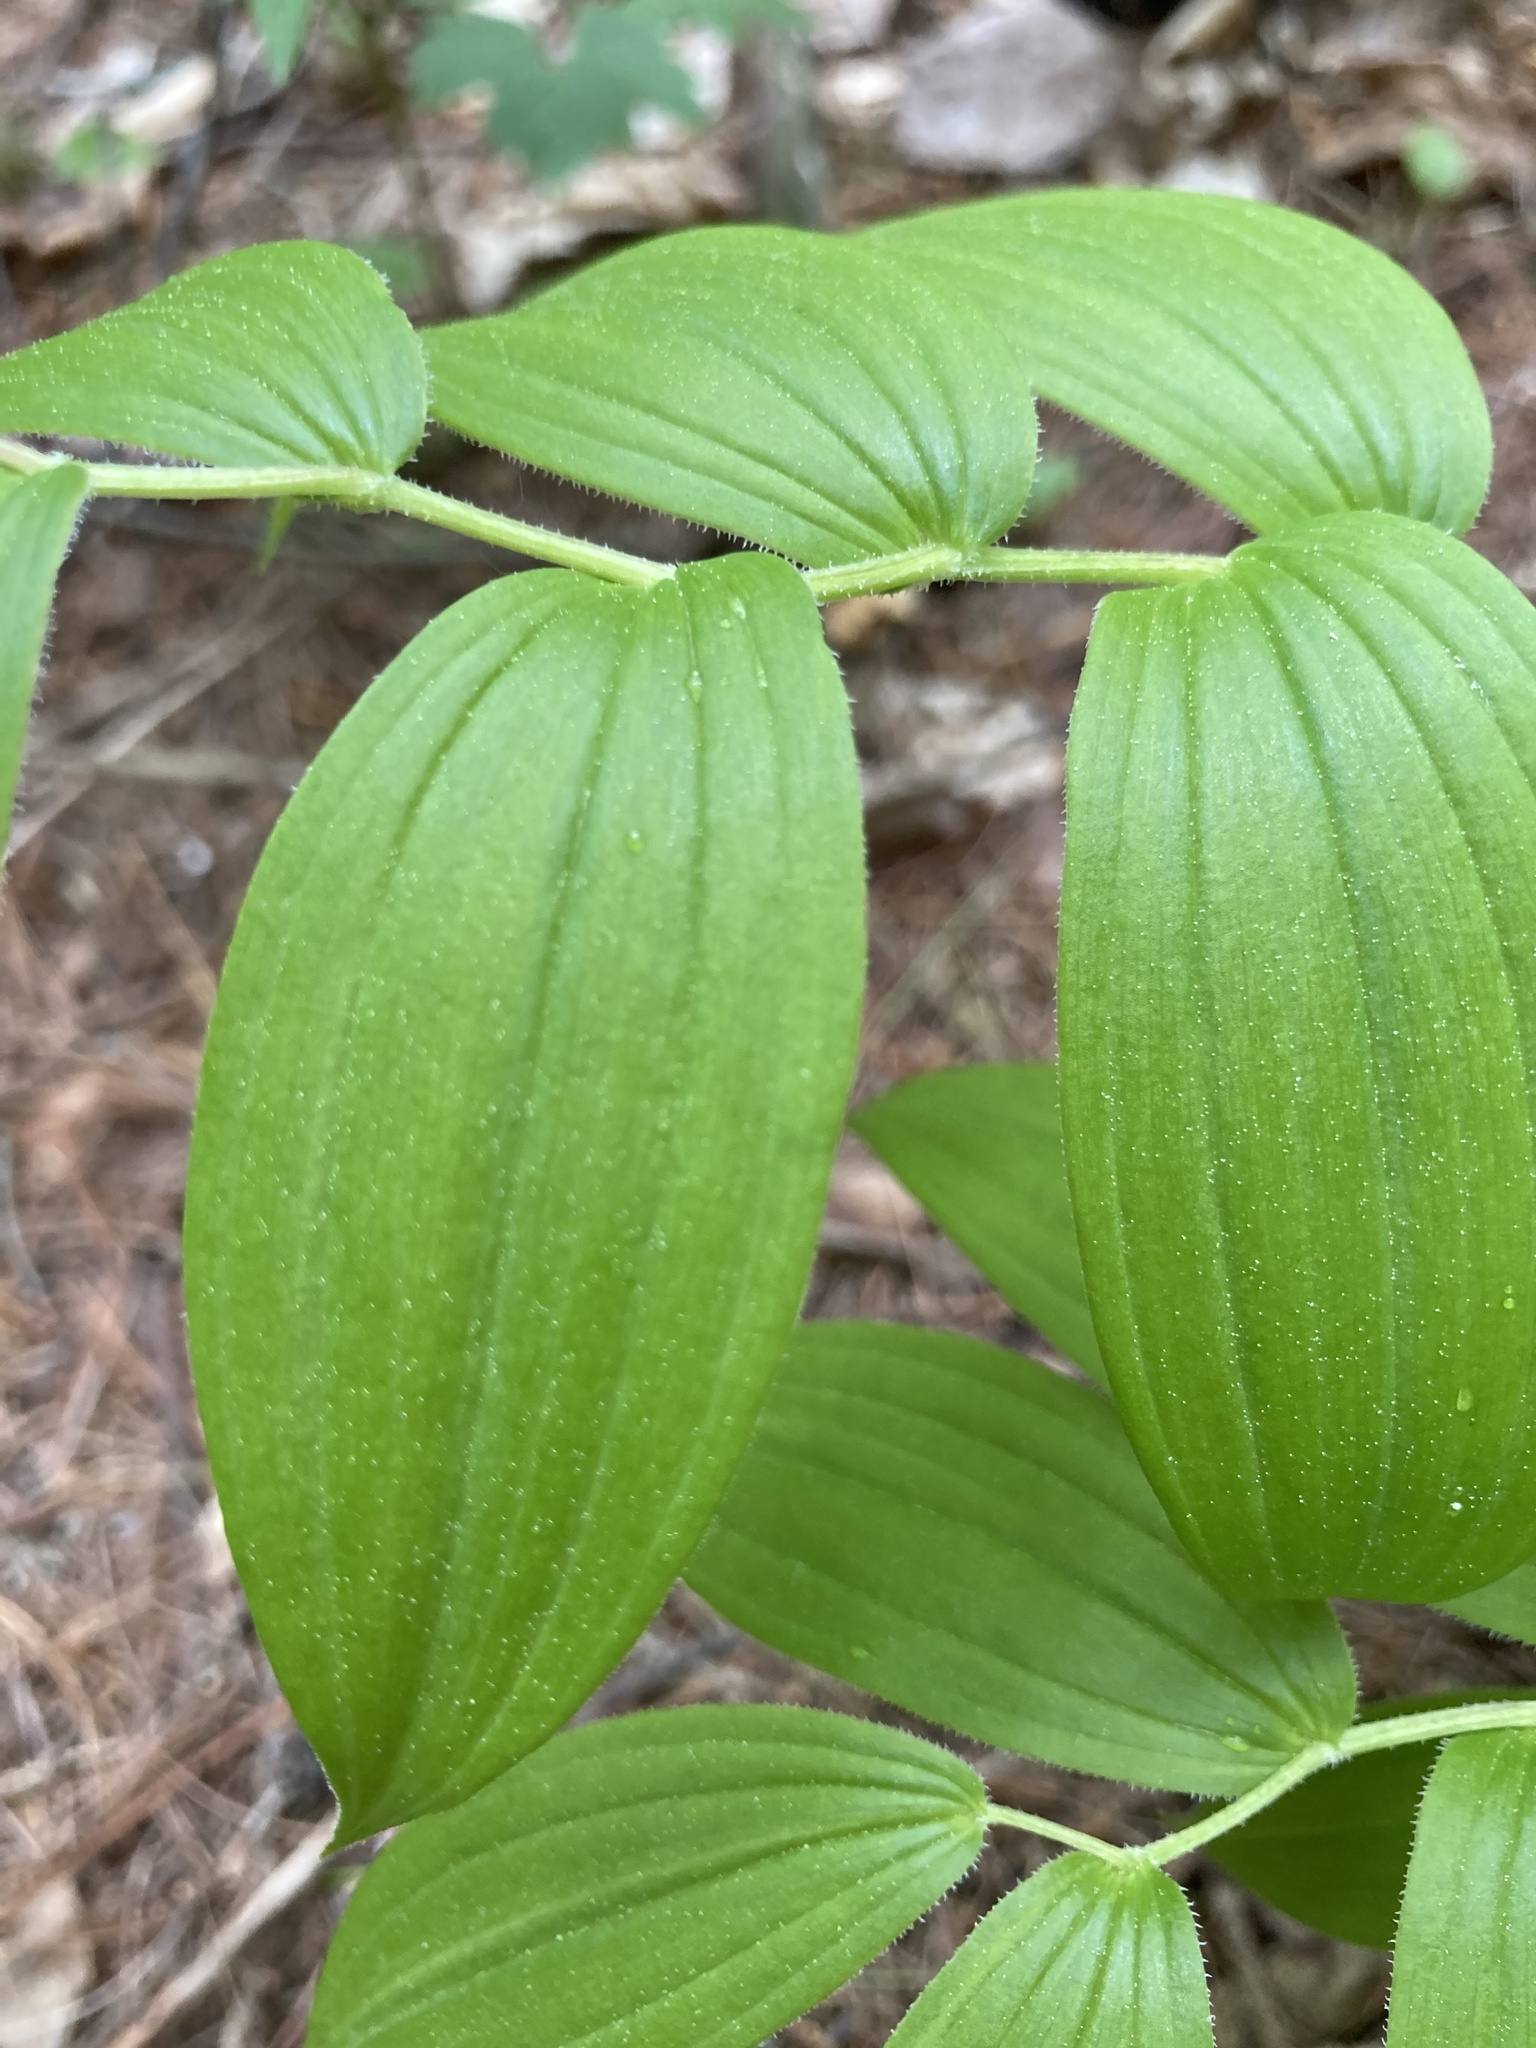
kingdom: Plantae
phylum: Tracheophyta
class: Liliopsida
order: Liliales
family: Liliaceae
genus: Streptopus
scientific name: Streptopus lanceolatus
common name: Rose mandarin
